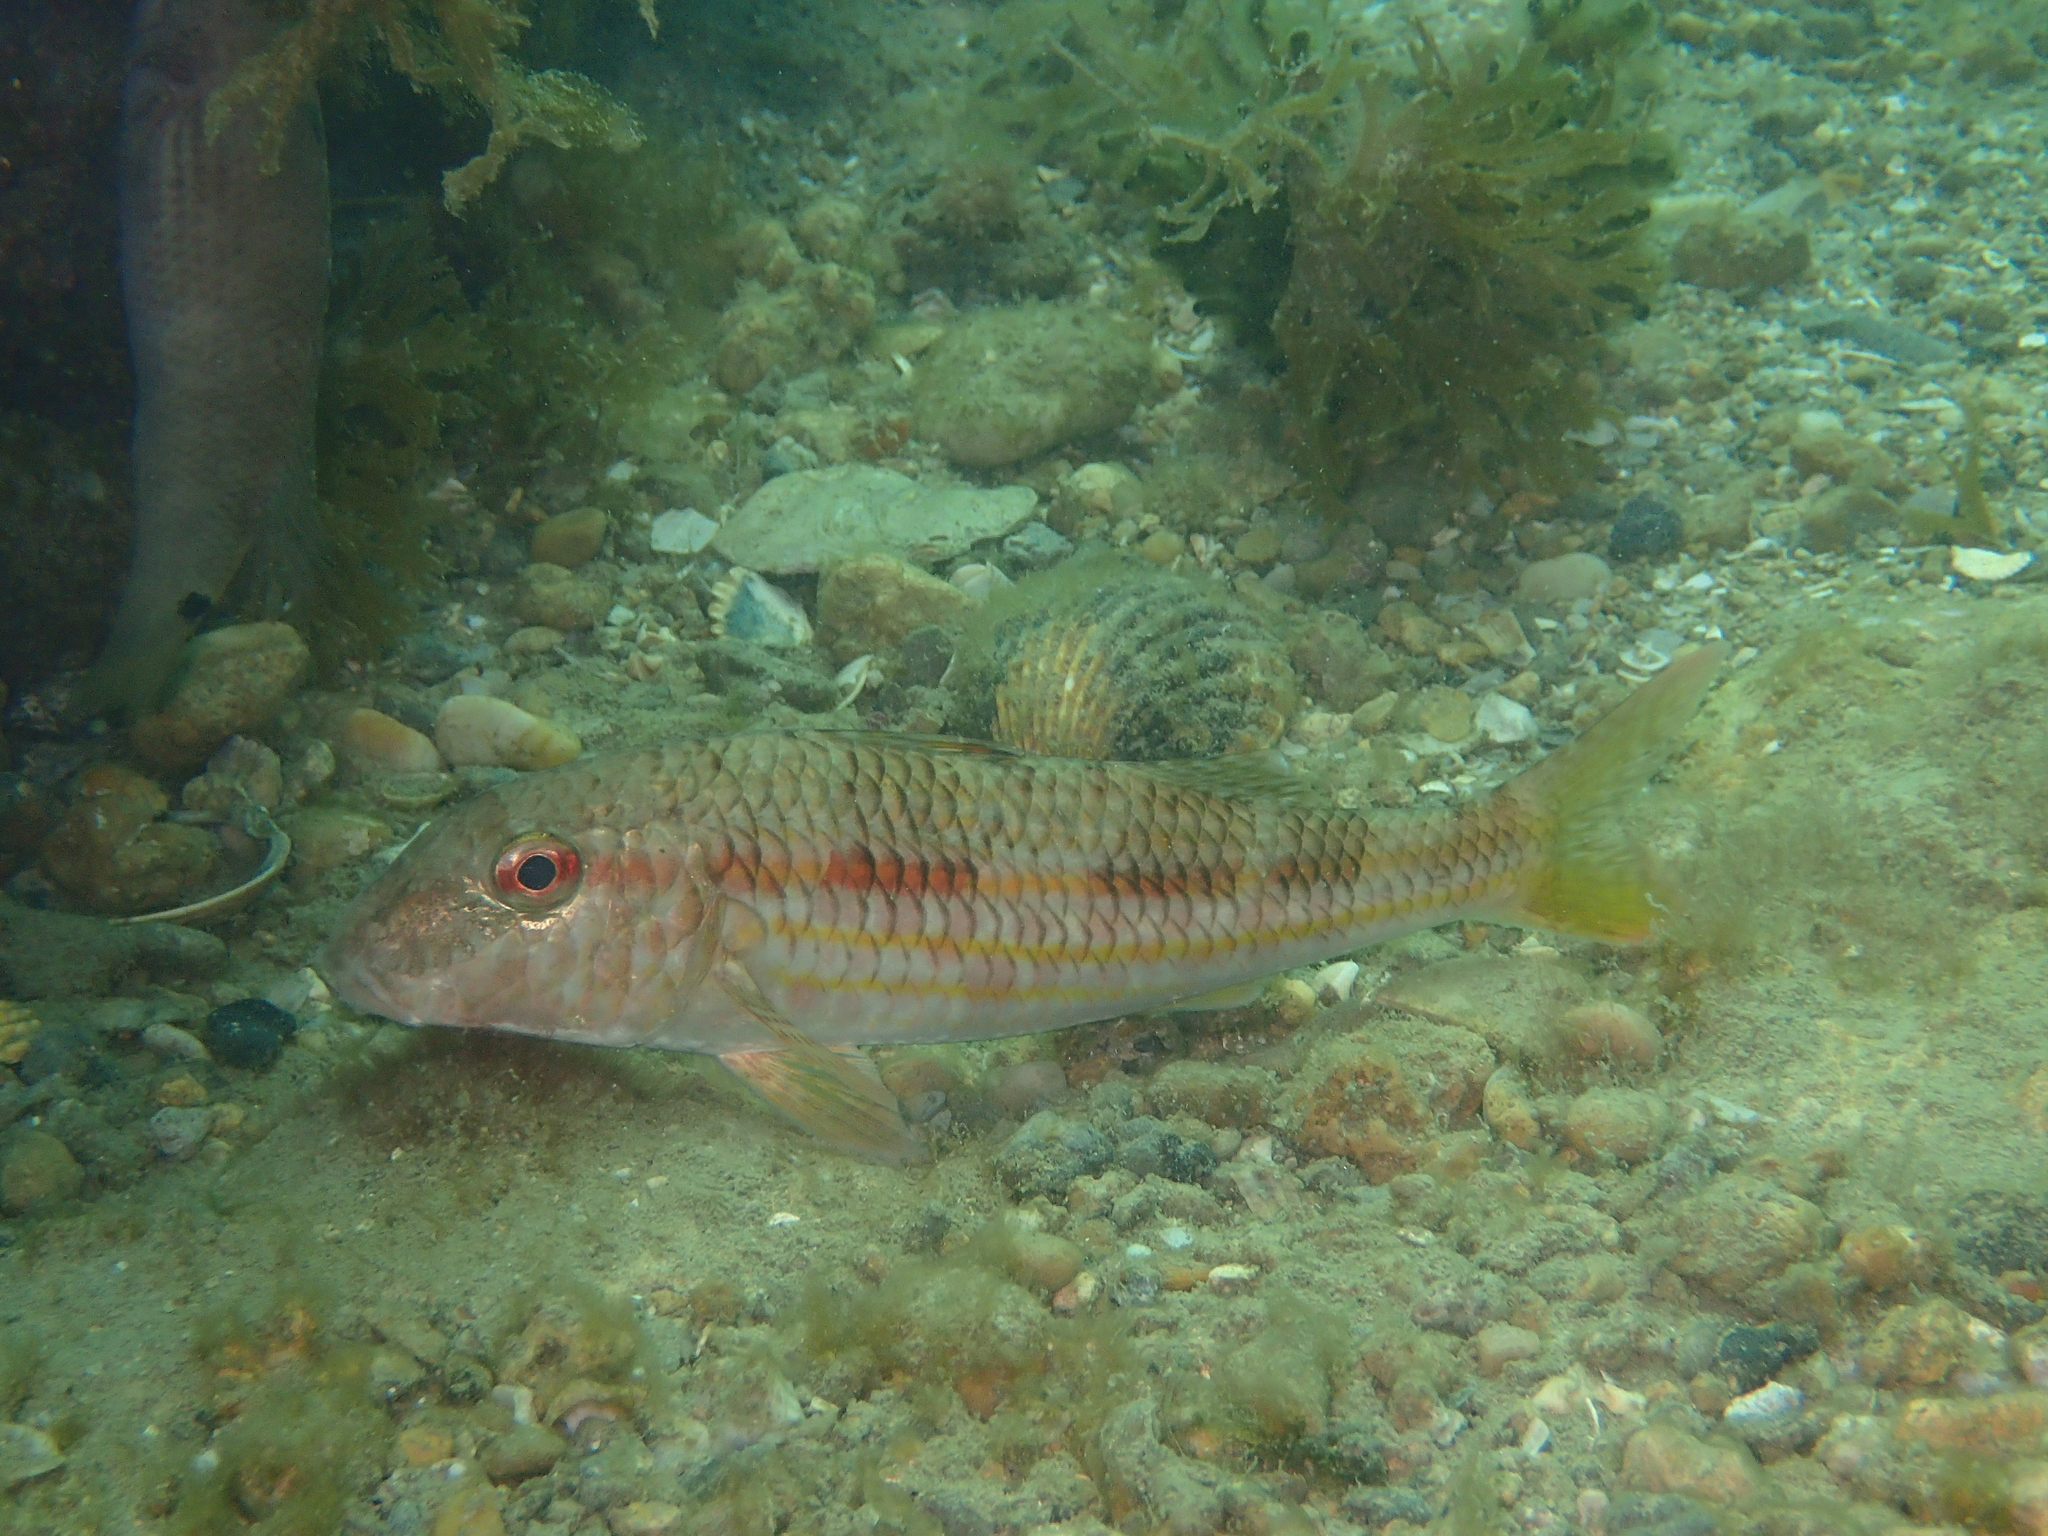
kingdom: Animalia
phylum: Chordata
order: Perciformes
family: Mullidae
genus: Mullus
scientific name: Mullus surmuletus
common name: Red mullet
